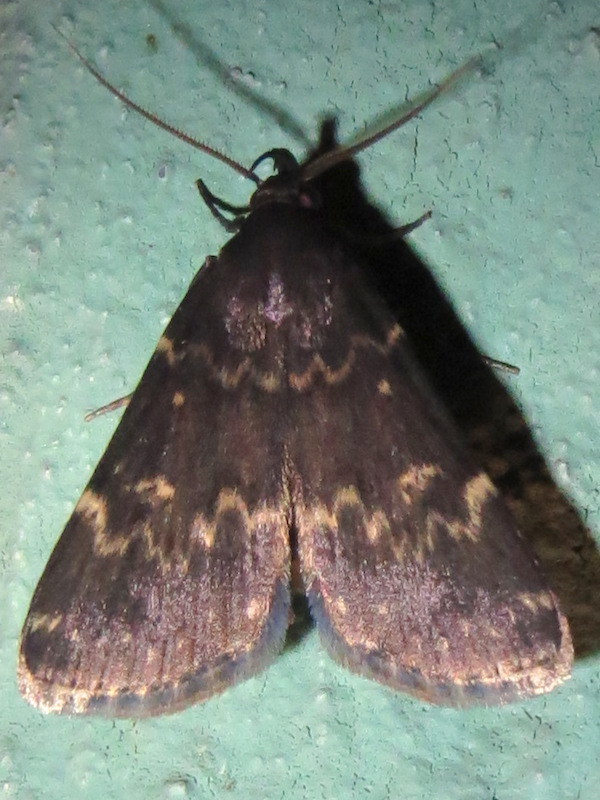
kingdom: Animalia
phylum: Arthropoda
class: Insecta
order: Lepidoptera
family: Erebidae
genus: Idia
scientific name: Idia lubricalis
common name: Twin-striped tabby
